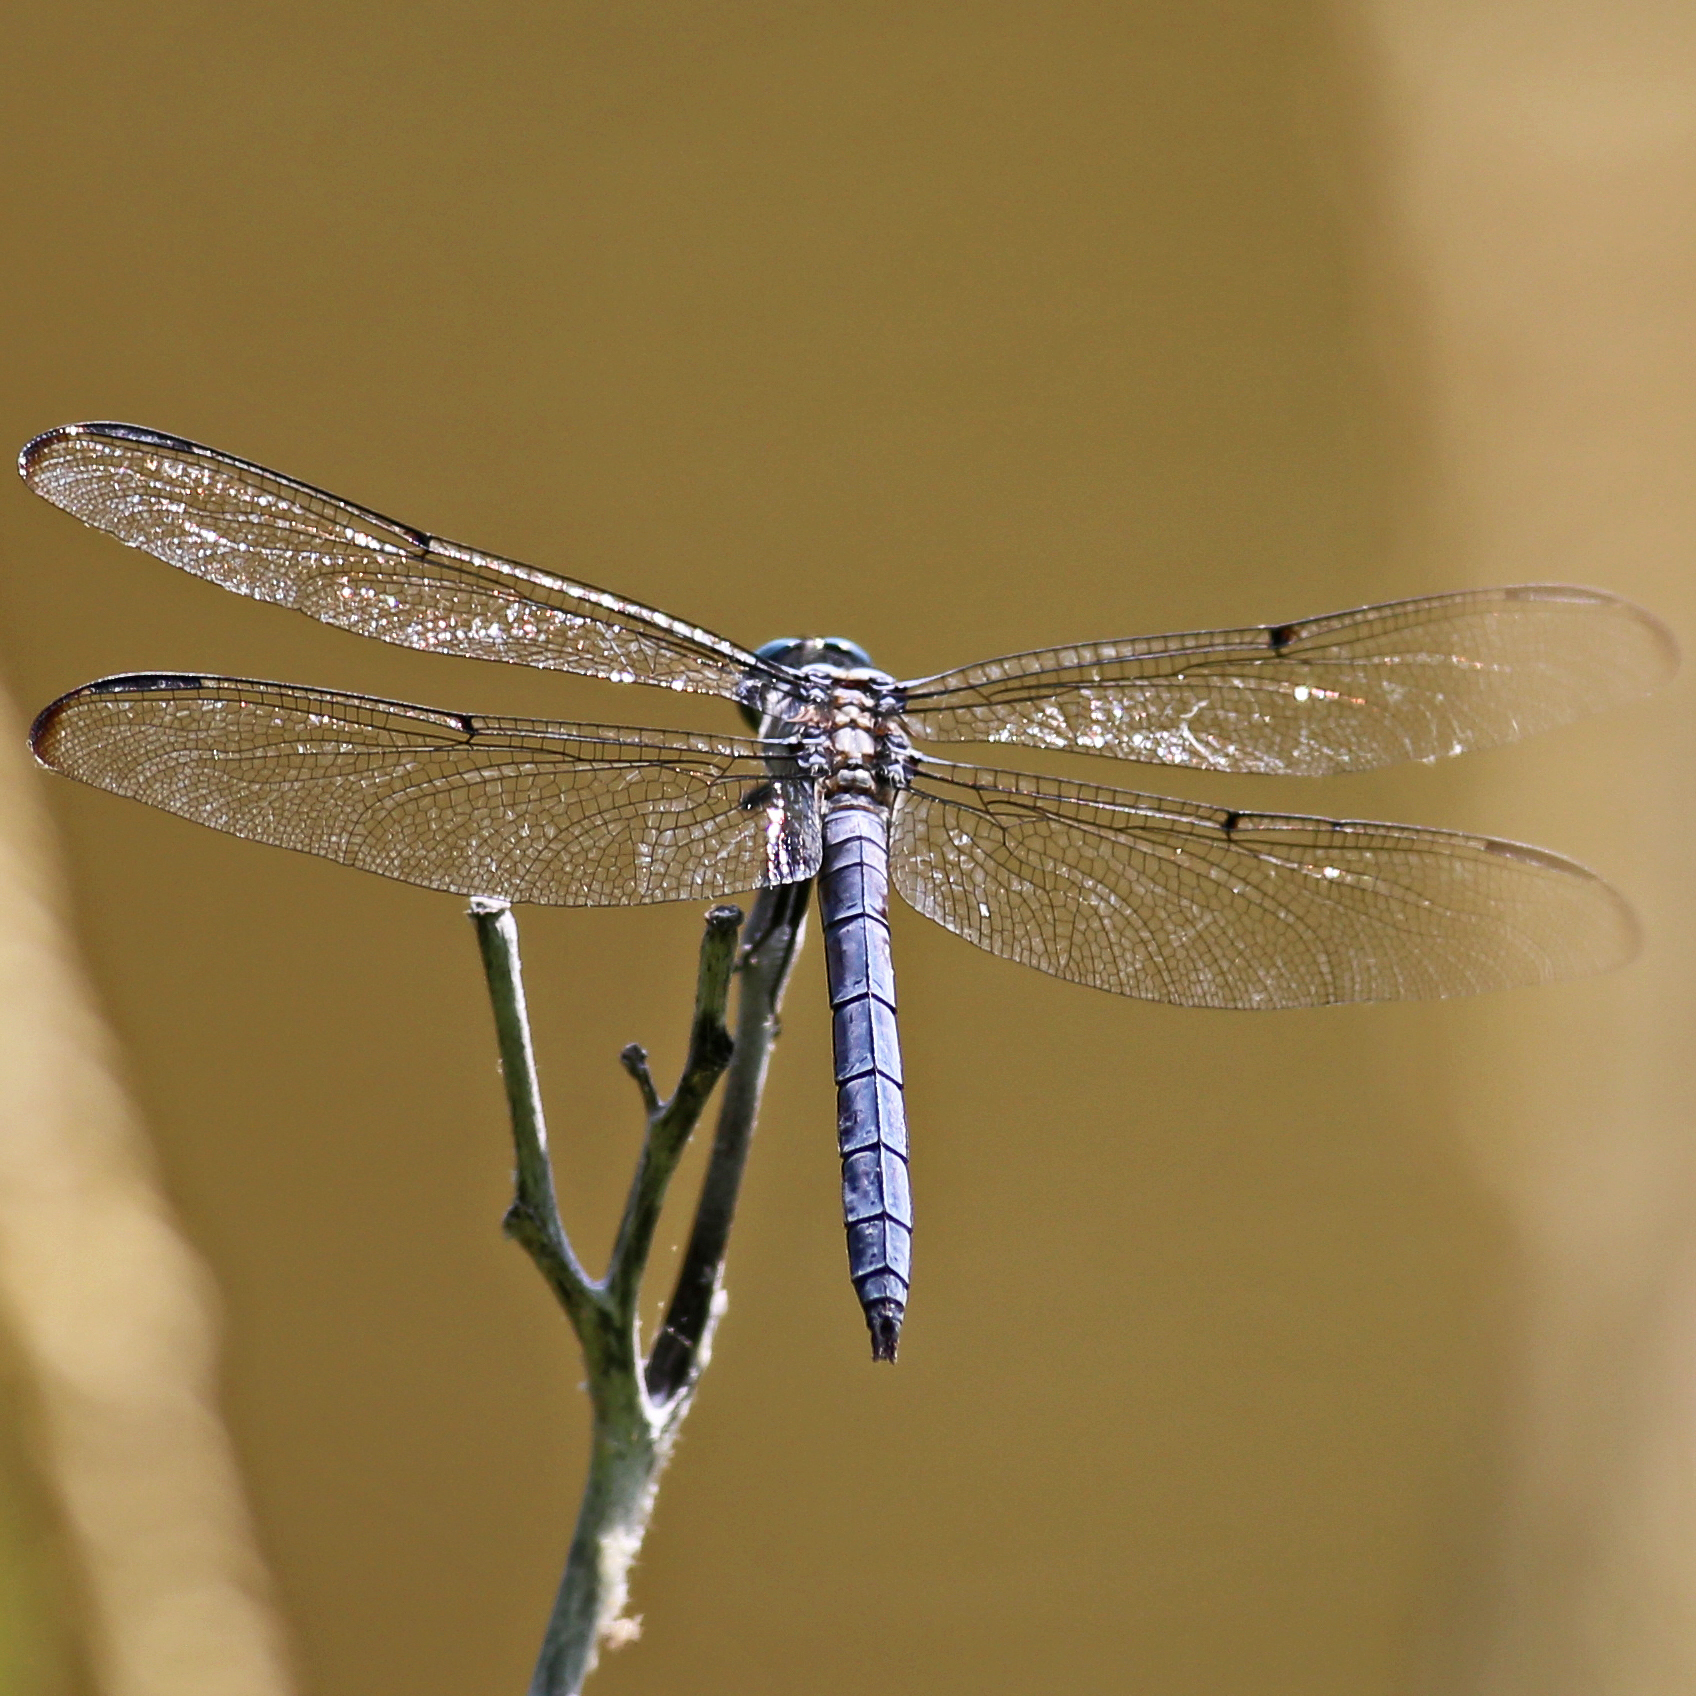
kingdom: Animalia
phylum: Arthropoda
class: Insecta
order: Odonata
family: Libellulidae
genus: Libellula
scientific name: Libellula vibrans
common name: Great blue skimmer
